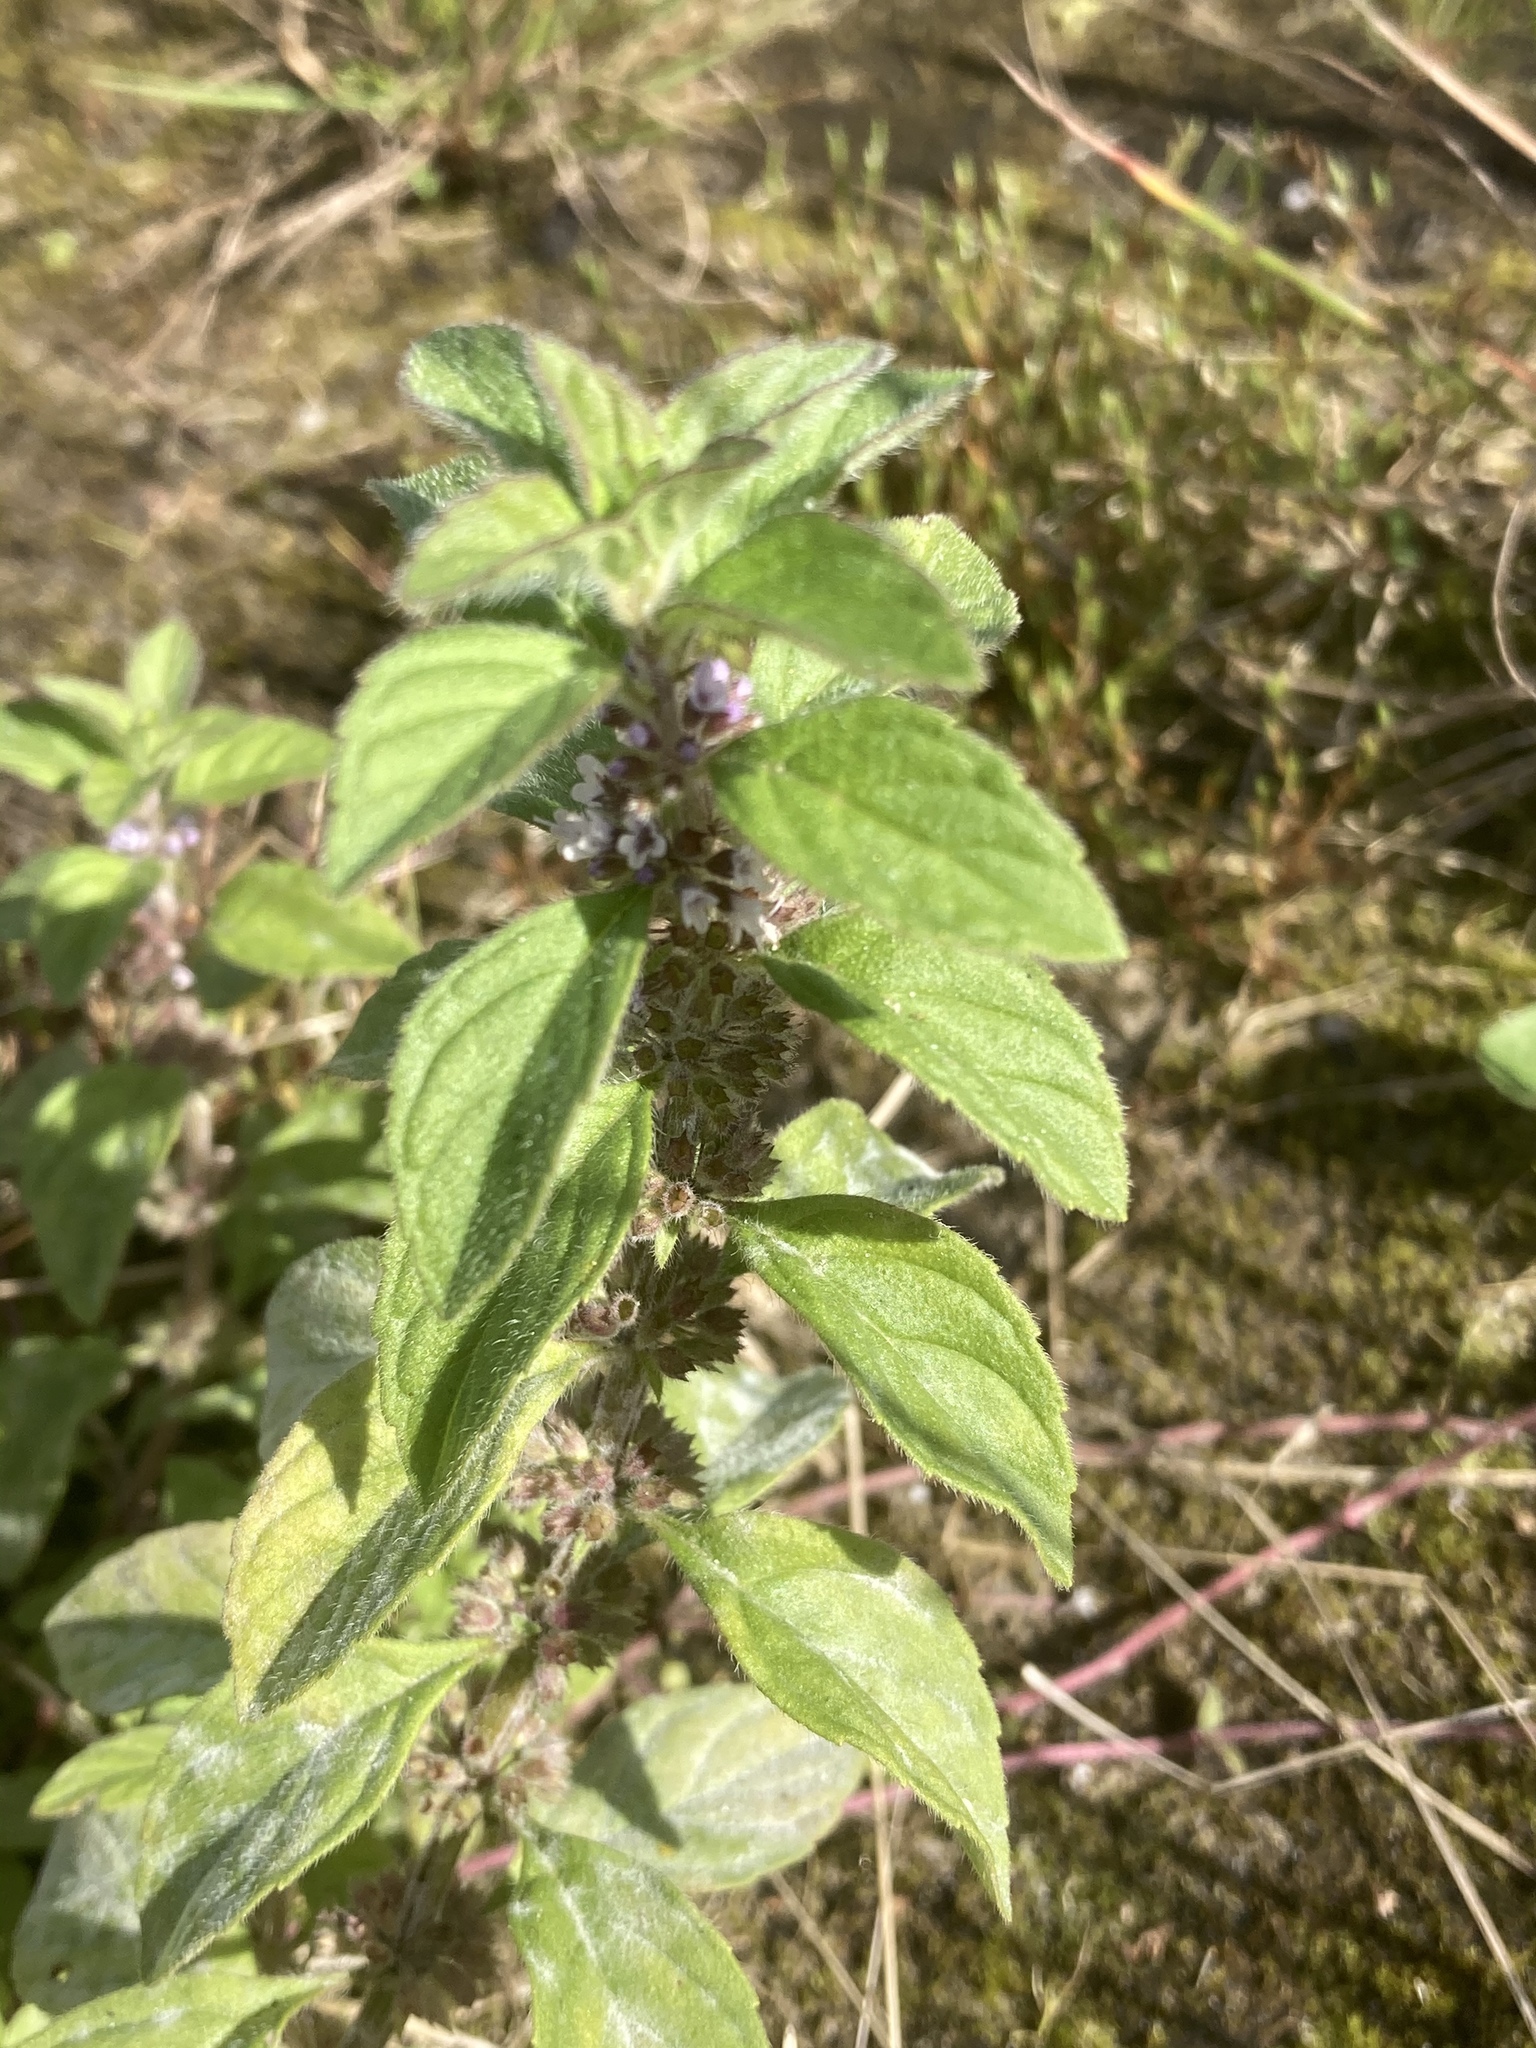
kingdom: Plantae
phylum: Tracheophyta
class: Magnoliopsida
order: Lamiales
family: Lamiaceae
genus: Mentha
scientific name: Mentha arvensis
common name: Corn mint
